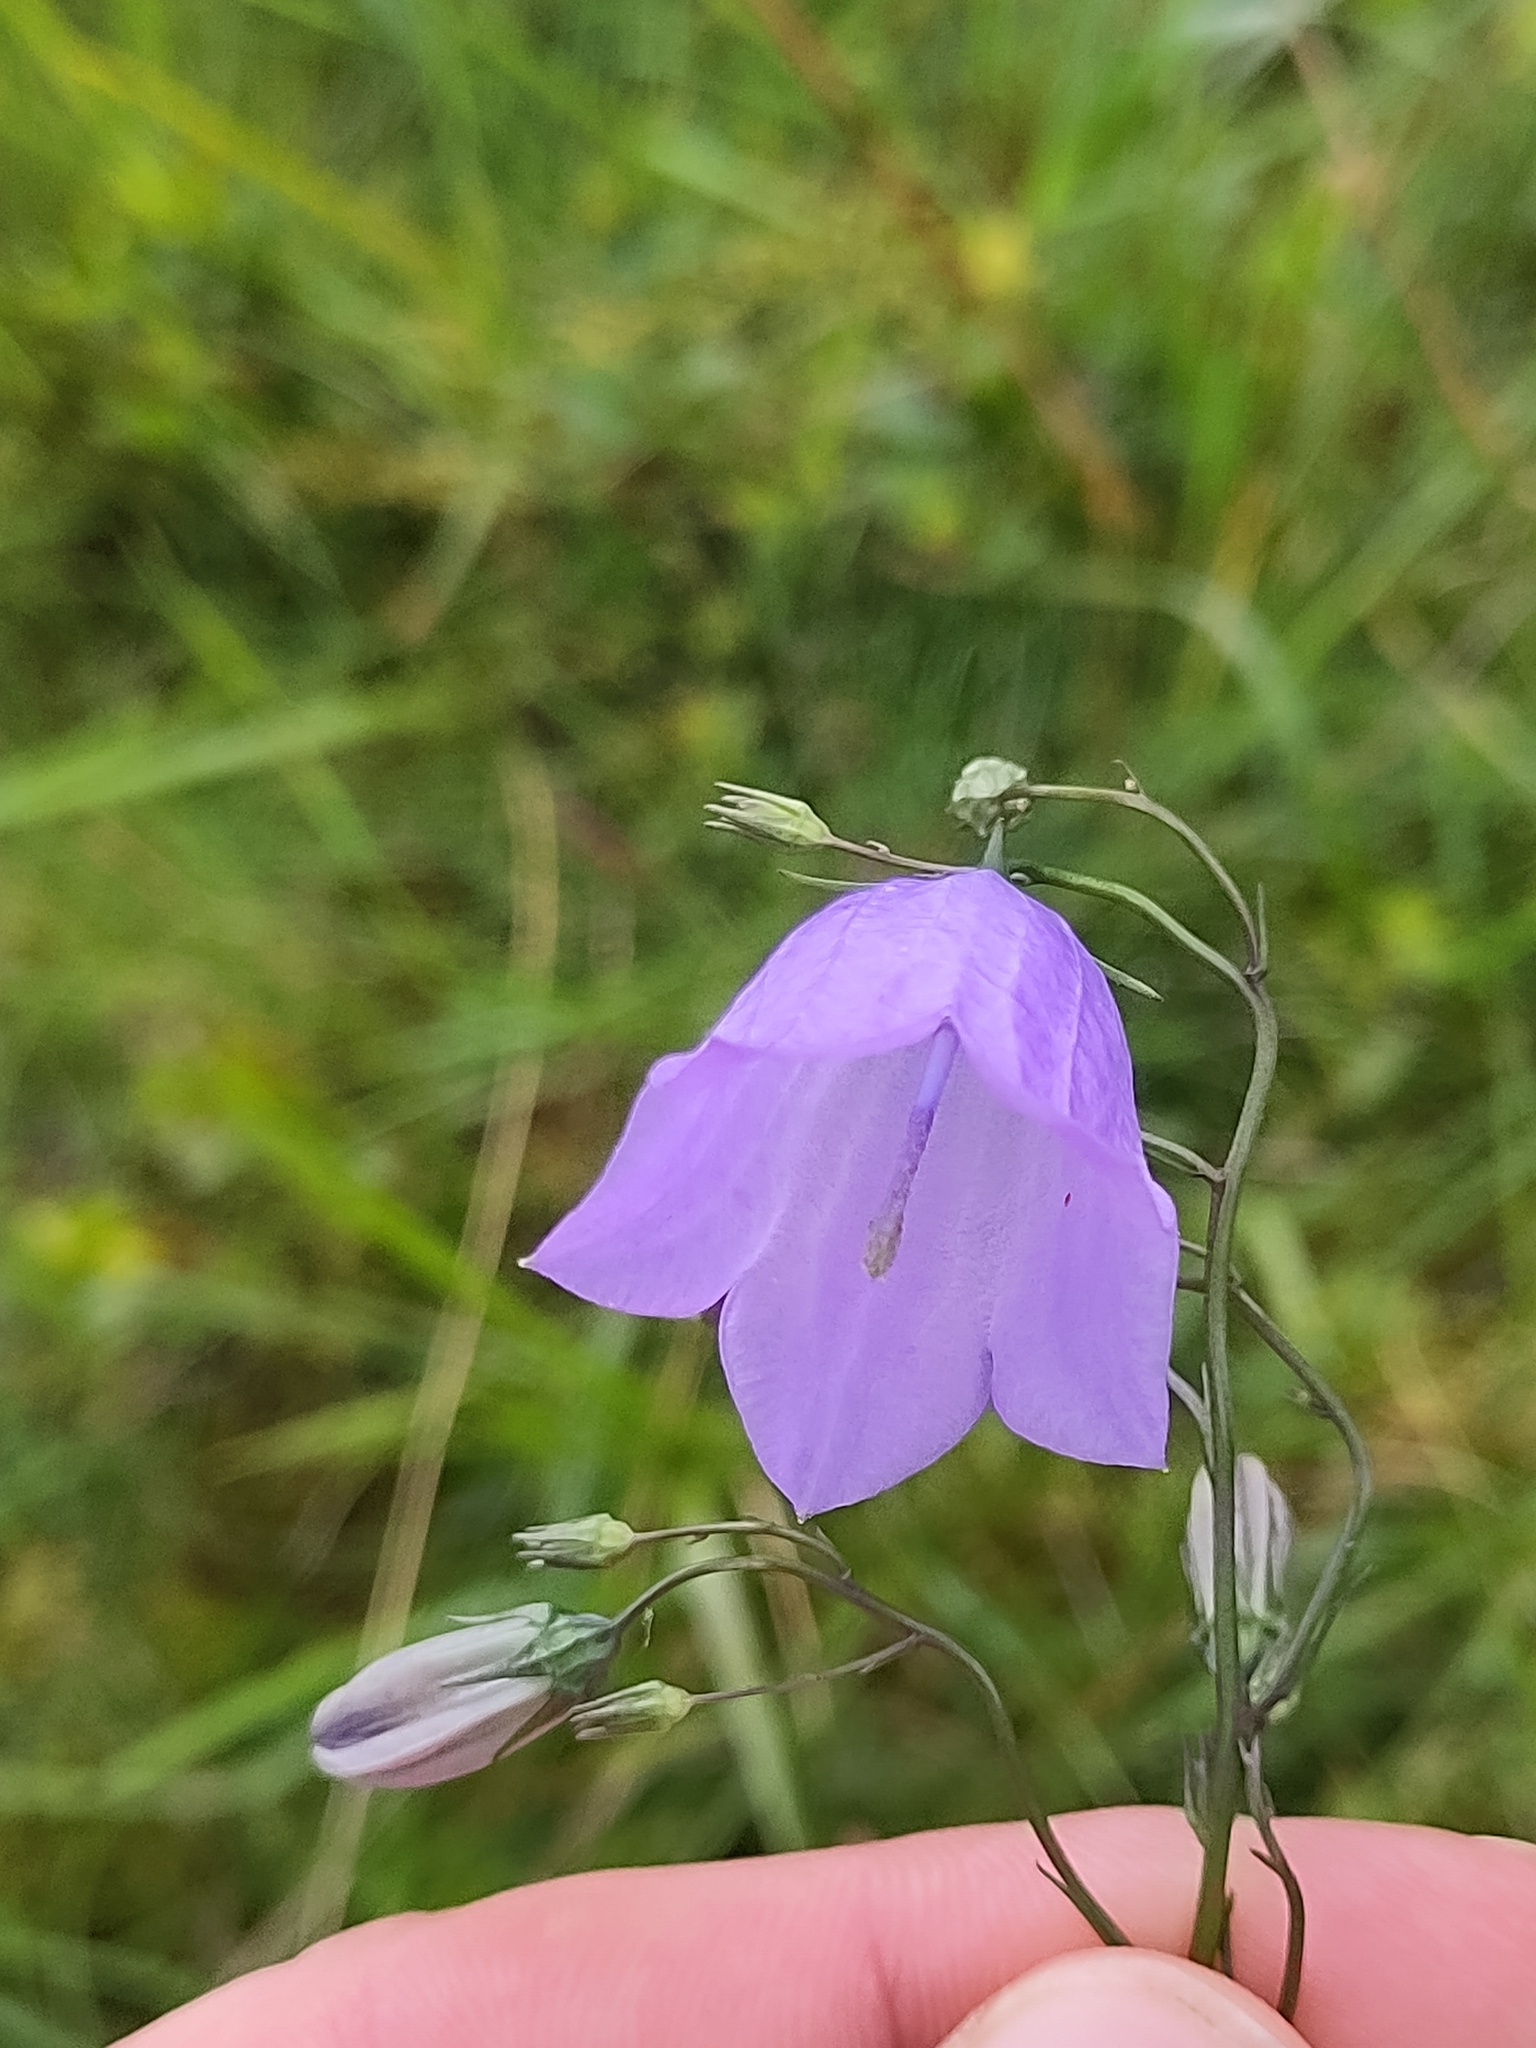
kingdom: Plantae
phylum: Tracheophyta
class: Magnoliopsida
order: Asterales
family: Campanulaceae
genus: Campanula
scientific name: Campanula rotundifolia
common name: Harebell
